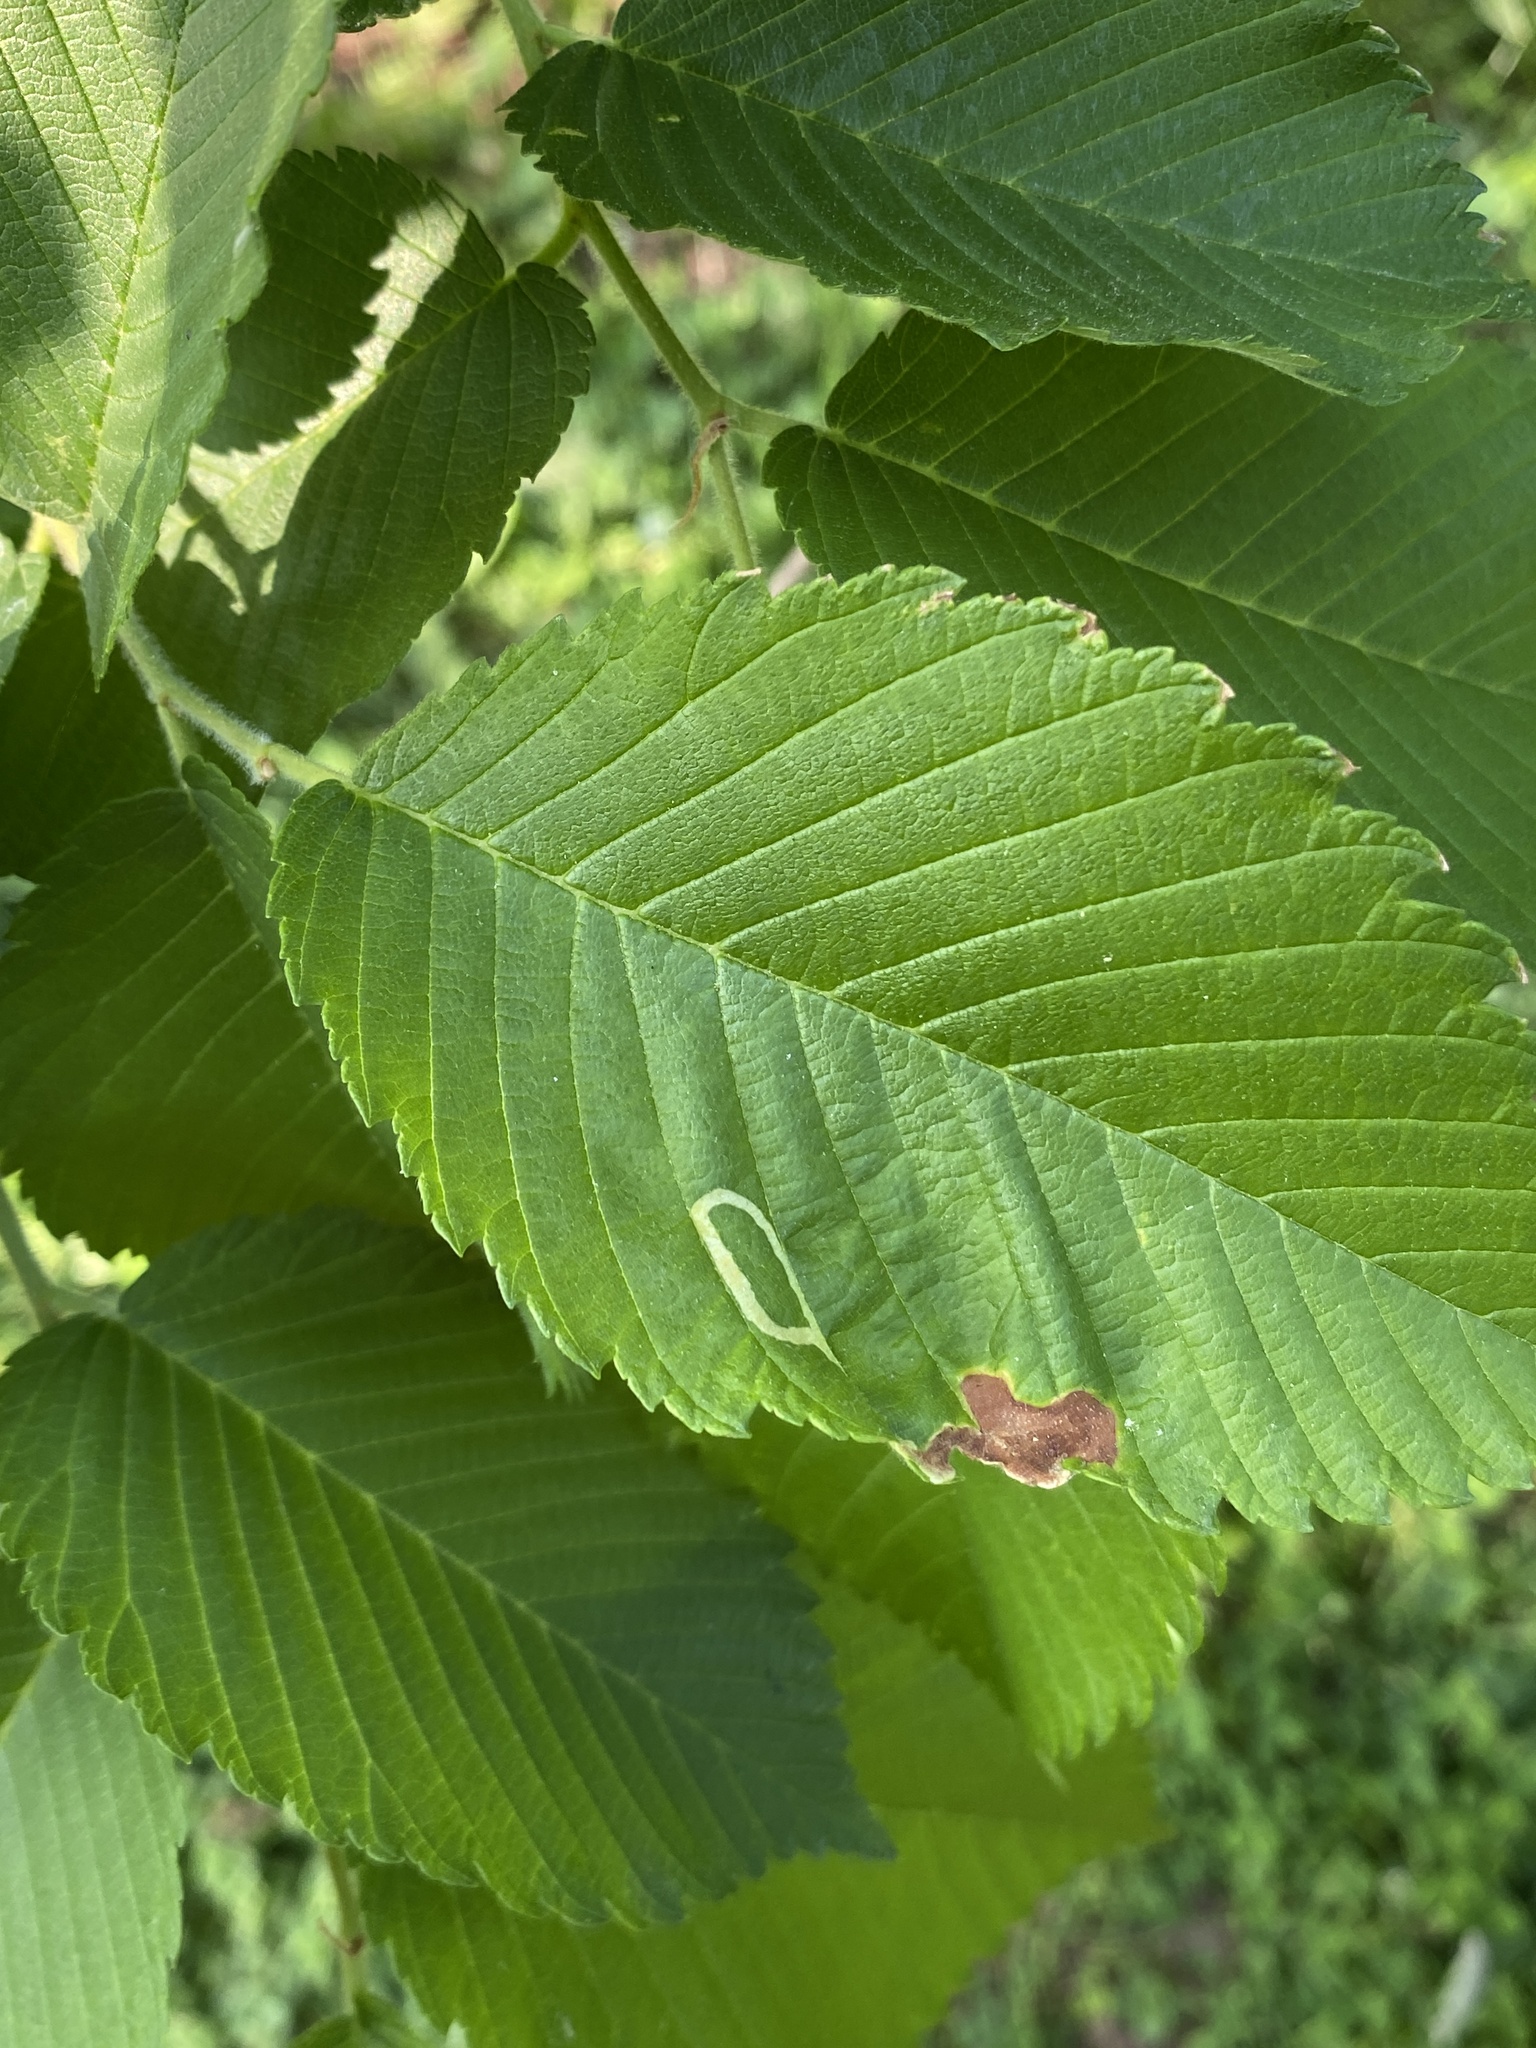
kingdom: Animalia
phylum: Arthropoda
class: Insecta
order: Diptera
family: Agromyzidae
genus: Agromyza
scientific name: Agromyza aristata
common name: Elm agromyzid leafminer
